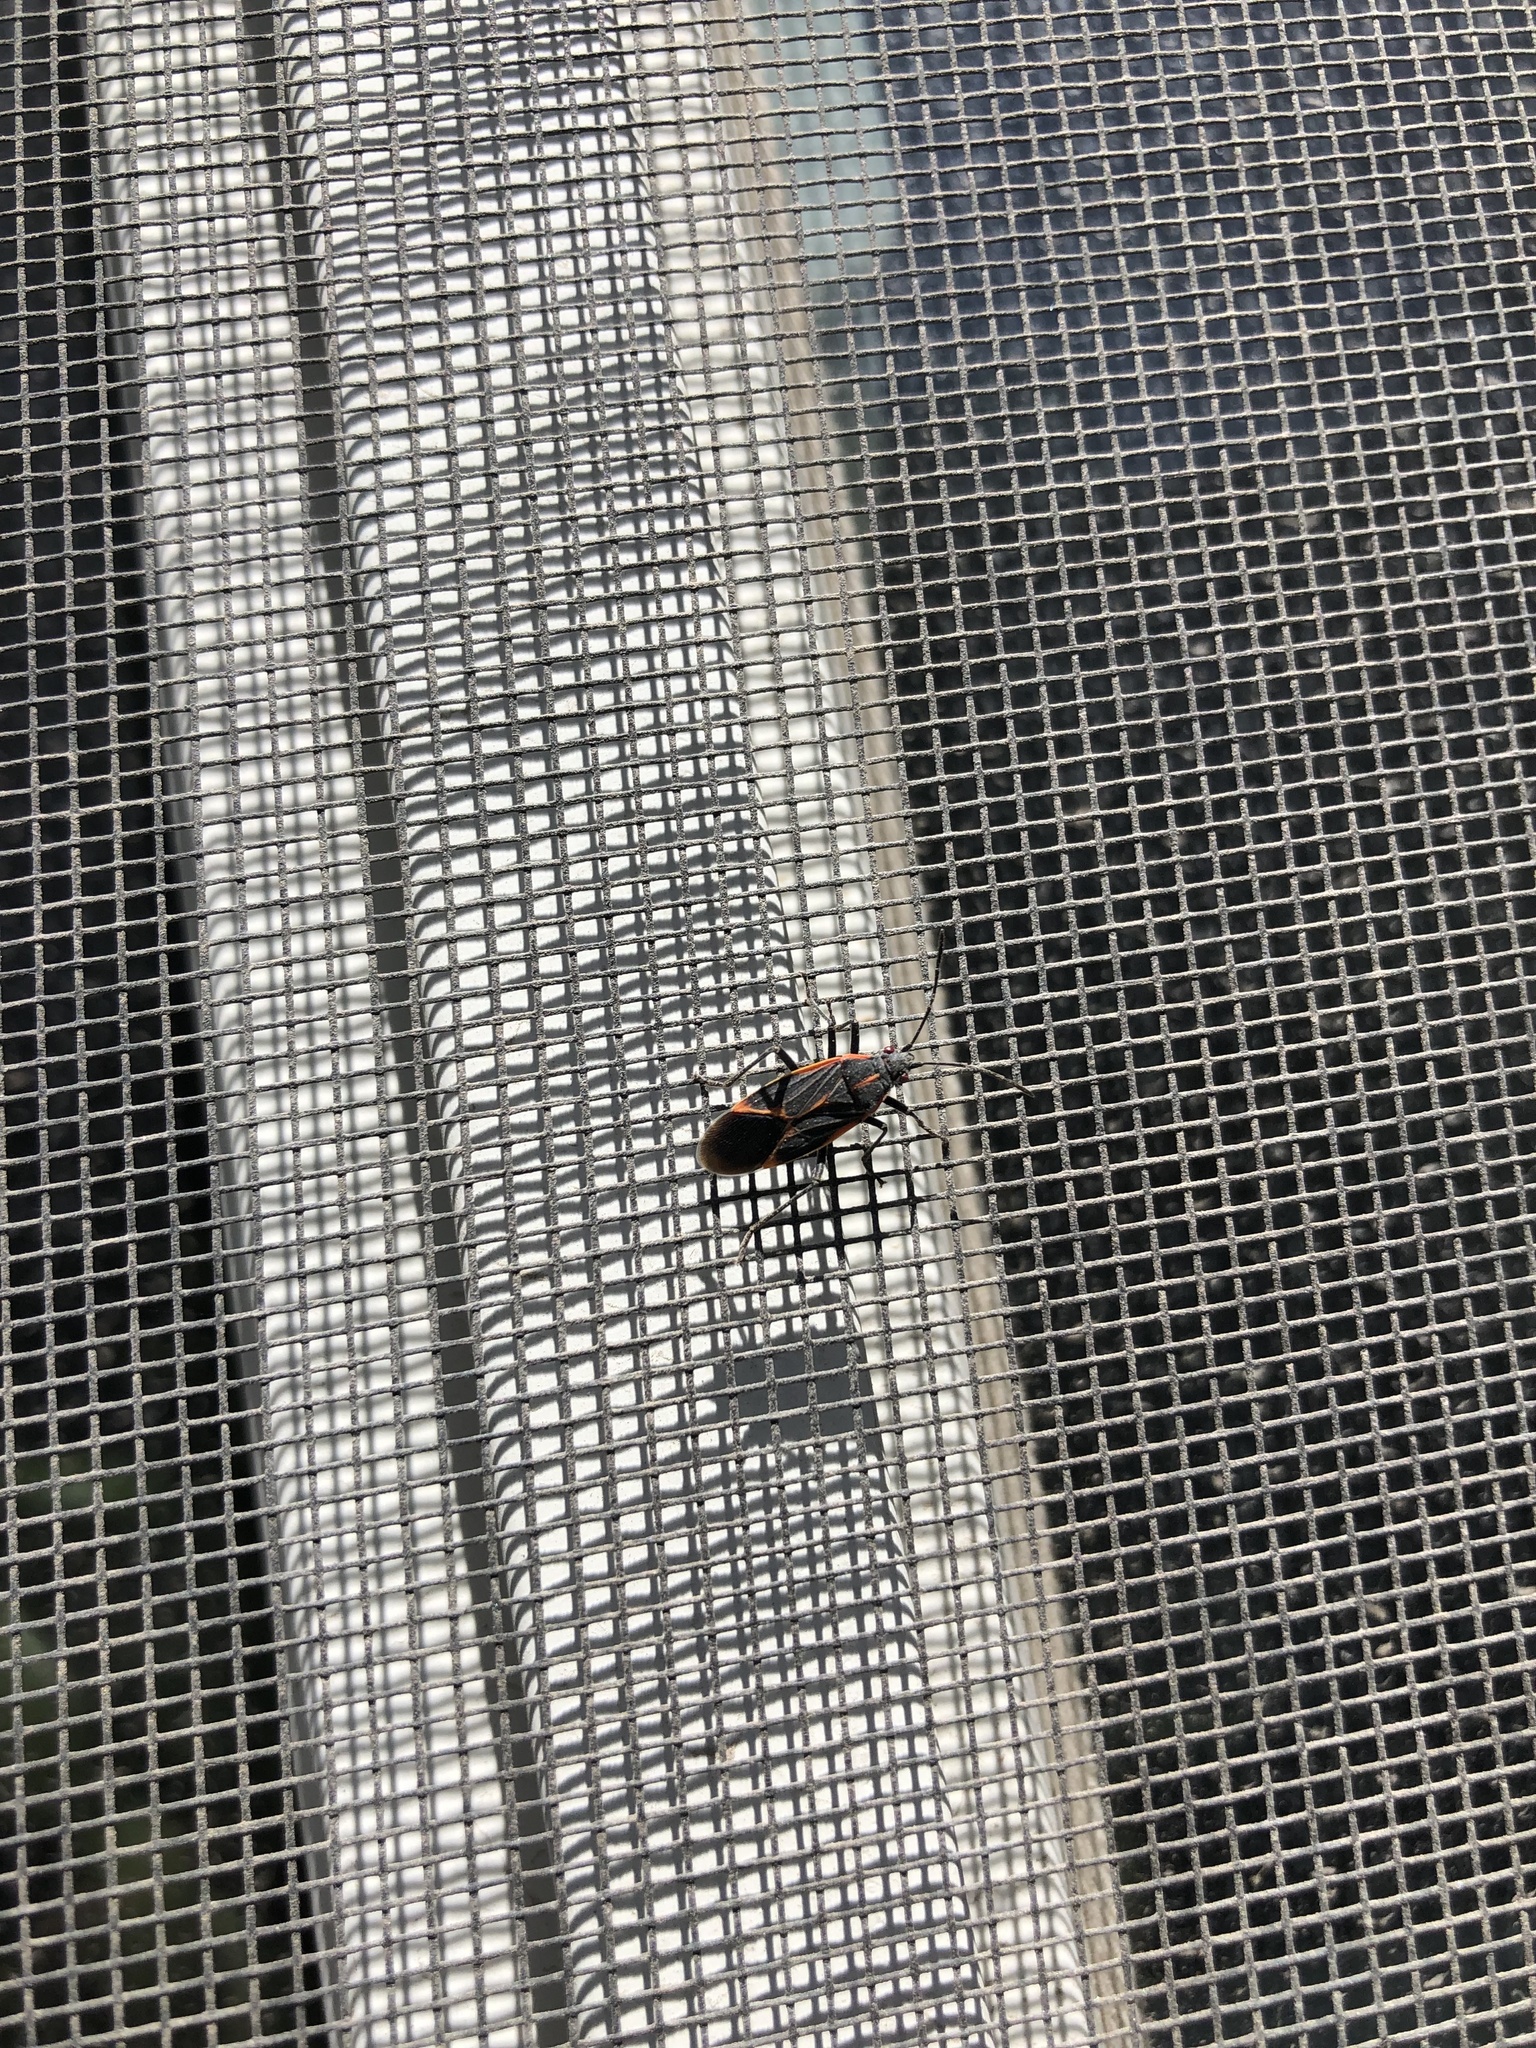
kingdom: Animalia
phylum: Arthropoda
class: Insecta
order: Hemiptera
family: Rhopalidae
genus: Boisea
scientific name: Boisea trivittata
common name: Boxelder bug
